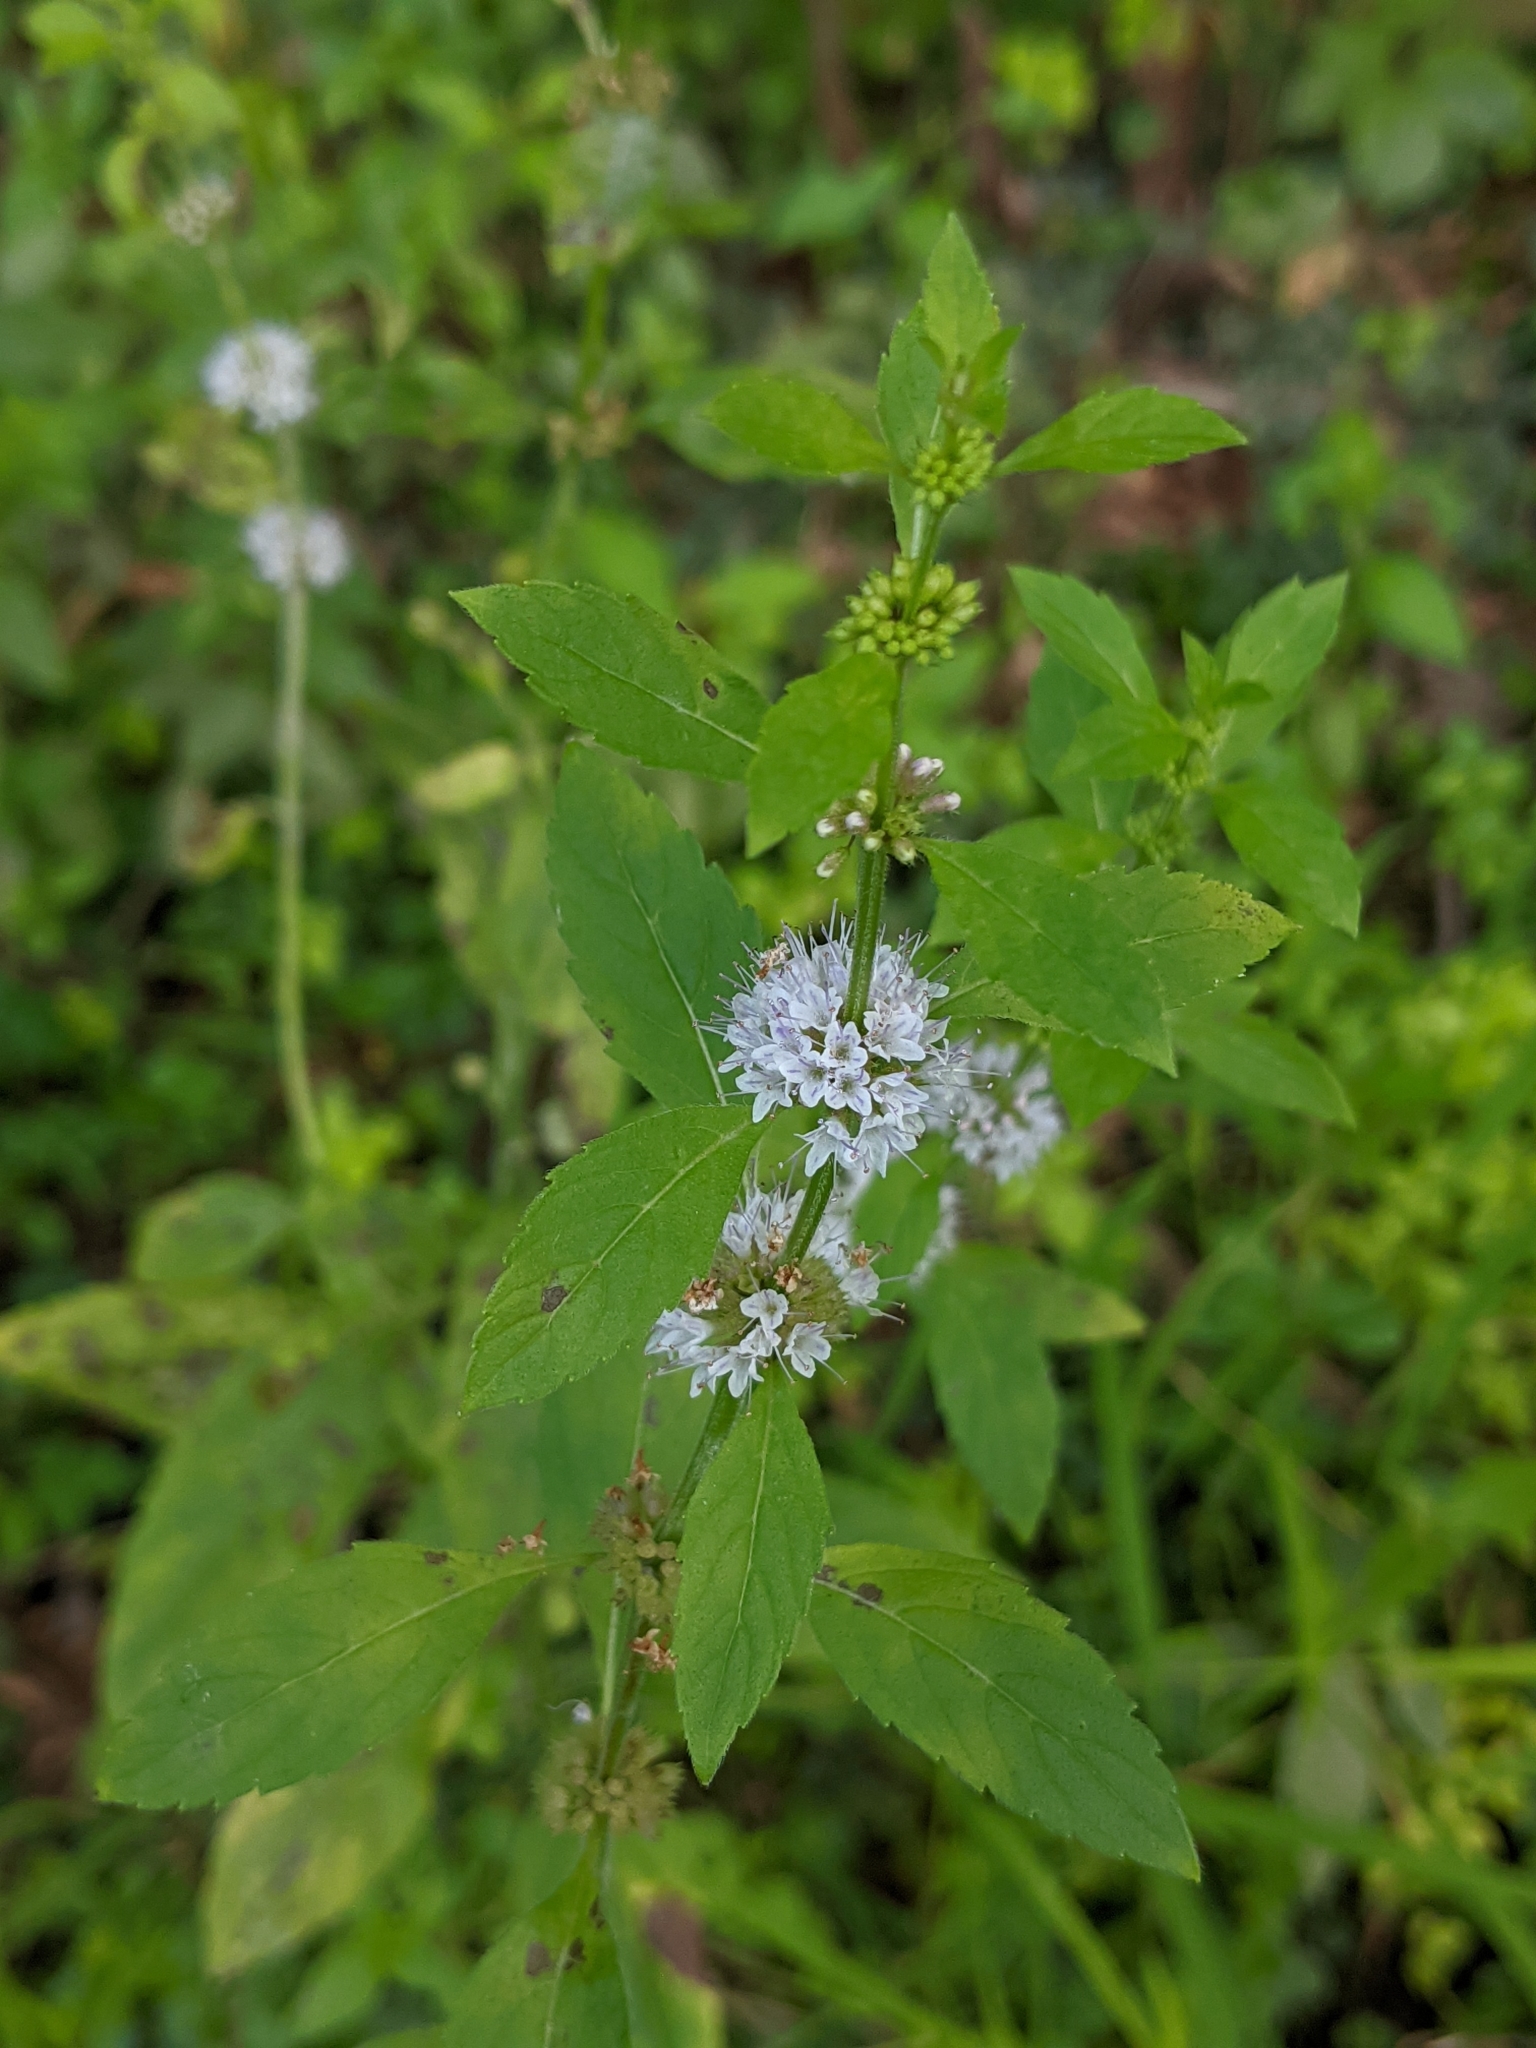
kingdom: Plantae
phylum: Tracheophyta
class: Magnoliopsida
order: Lamiales
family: Lamiaceae
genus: Mentha
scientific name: Mentha canadensis
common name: American corn mint
